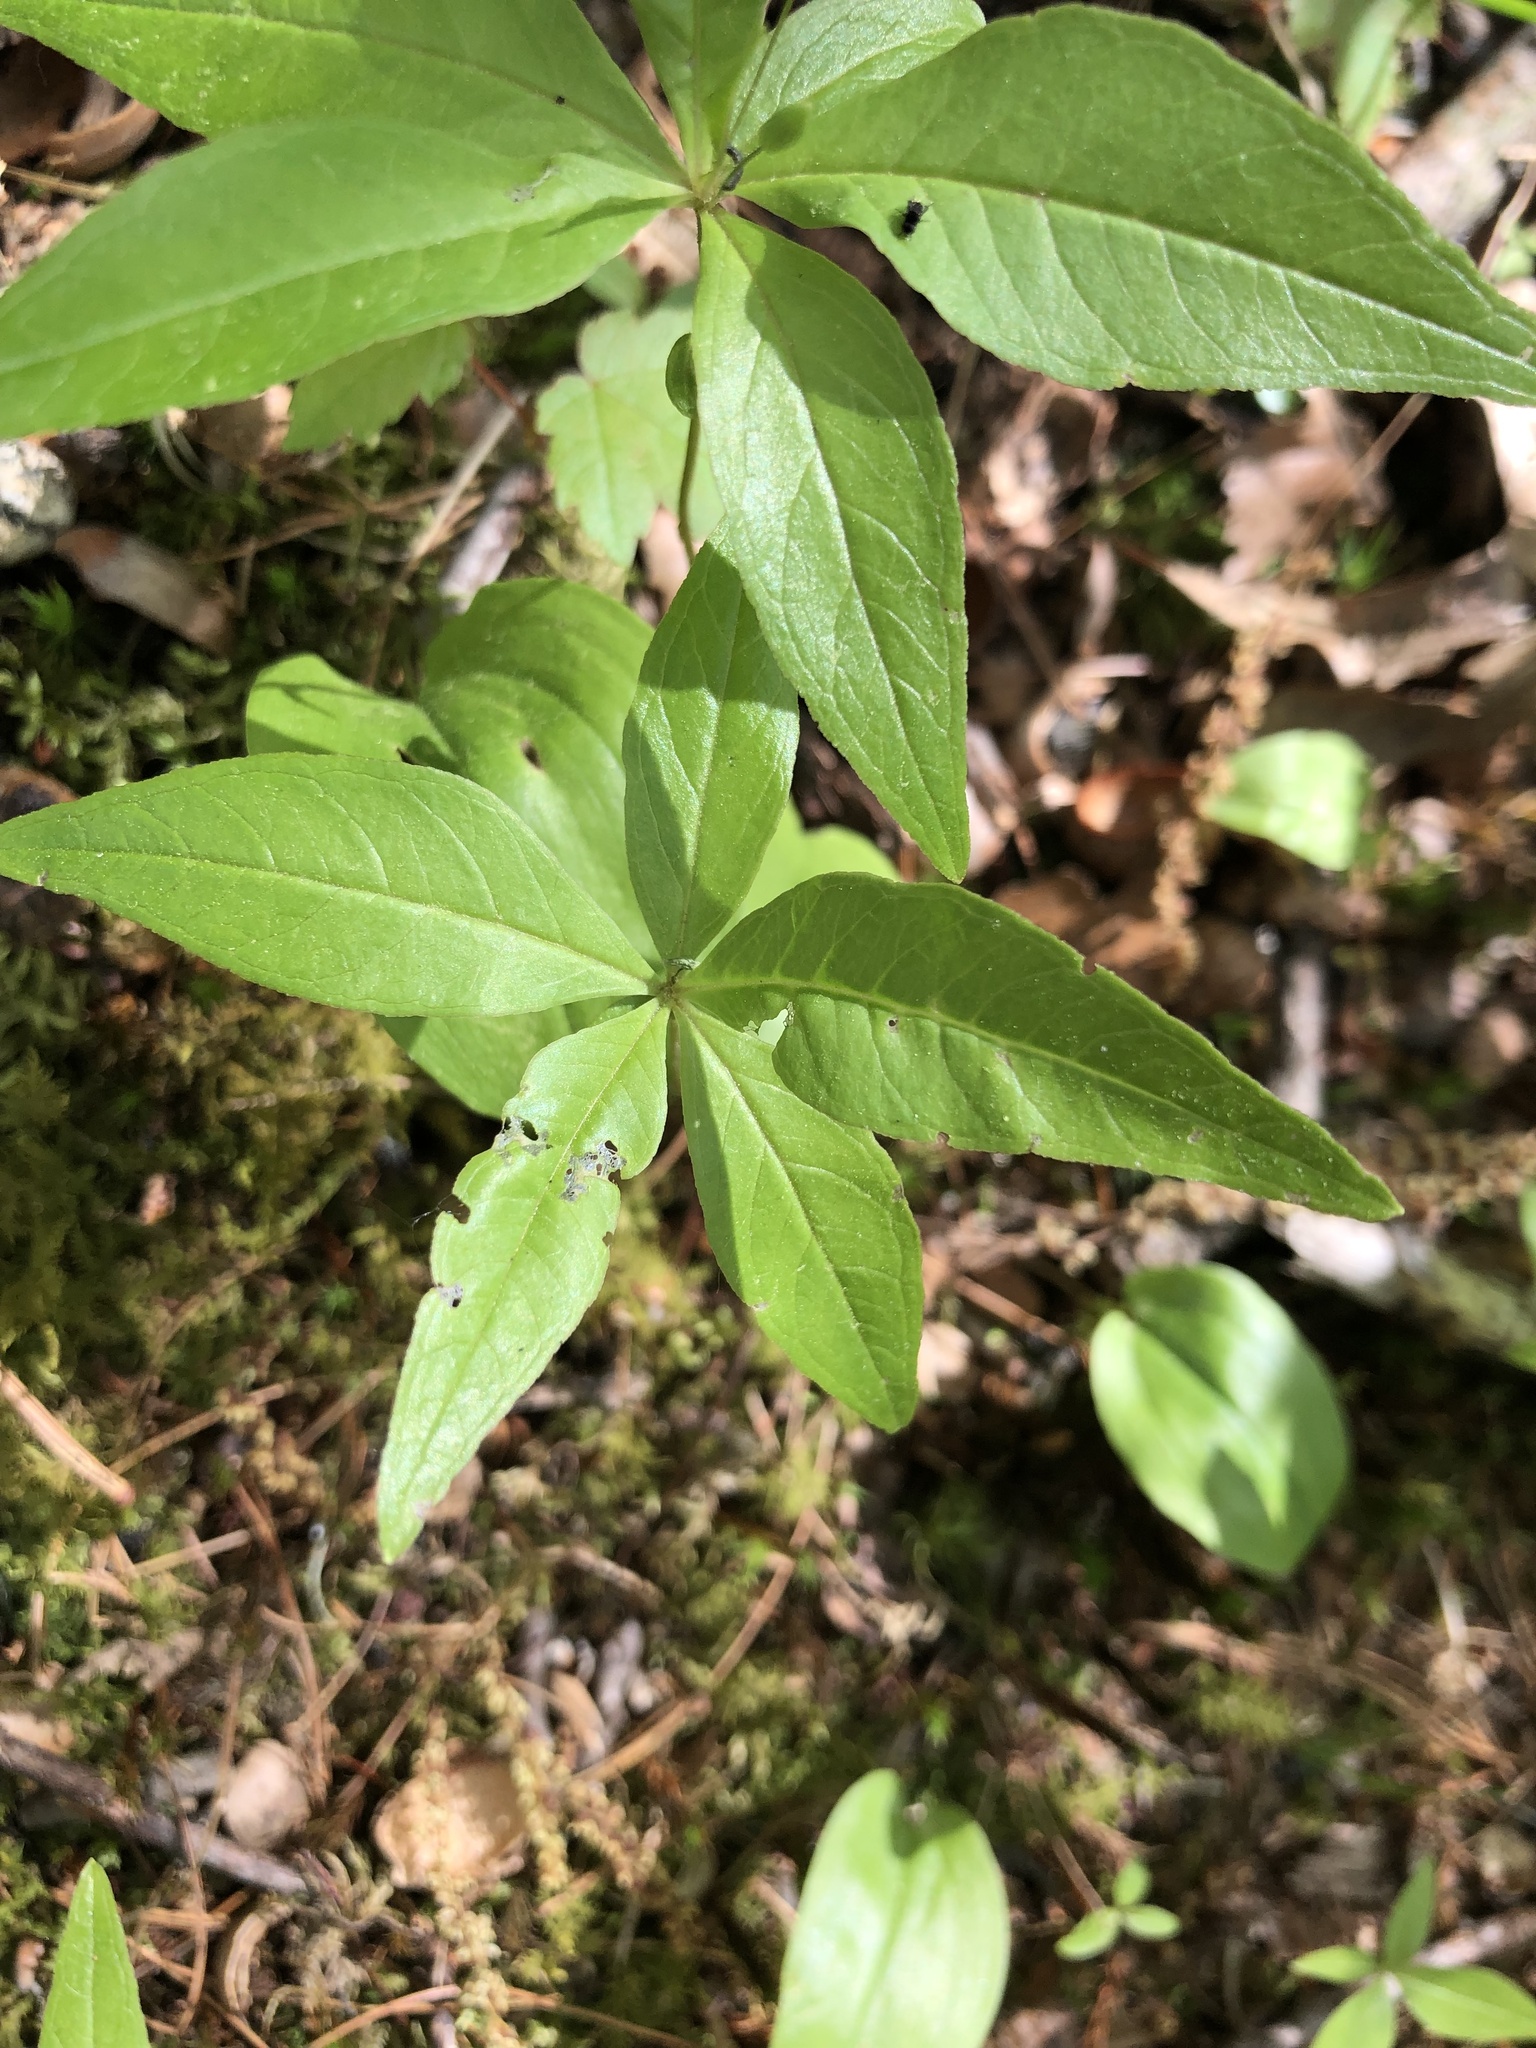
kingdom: Plantae
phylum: Tracheophyta
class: Magnoliopsida
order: Ericales
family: Primulaceae
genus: Lysimachia
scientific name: Lysimachia borealis
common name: American starflower
